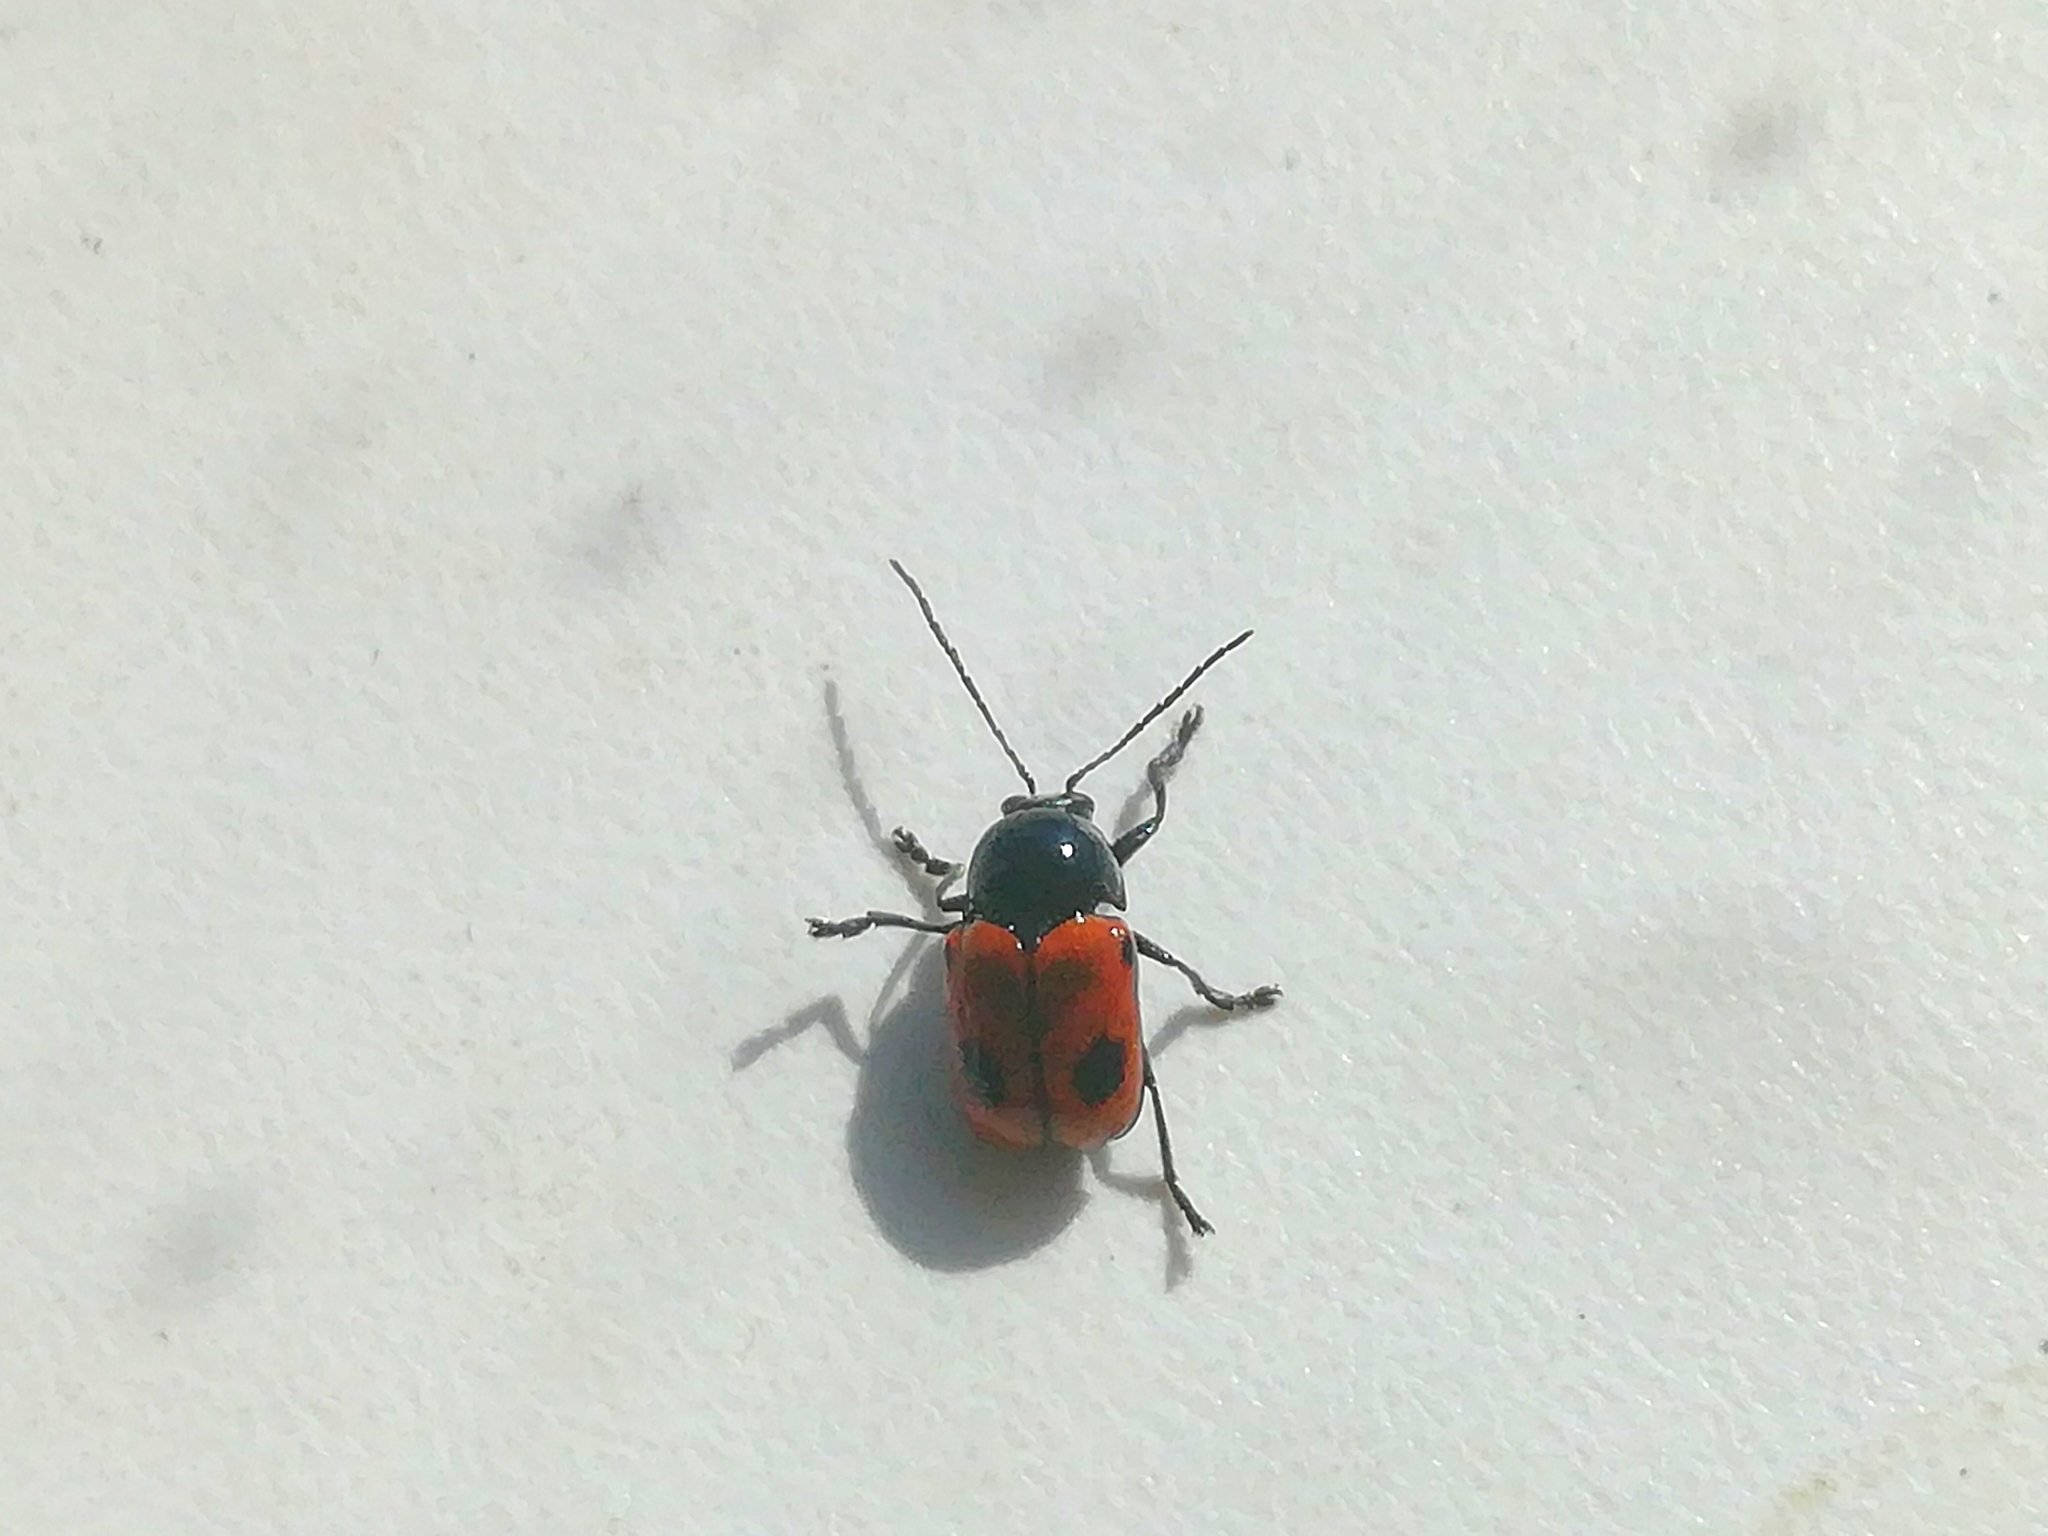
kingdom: Animalia
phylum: Arthropoda
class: Insecta
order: Coleoptera
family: Chrysomelidae
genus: Chiridopsis
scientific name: Chiridopsis bipunctata
